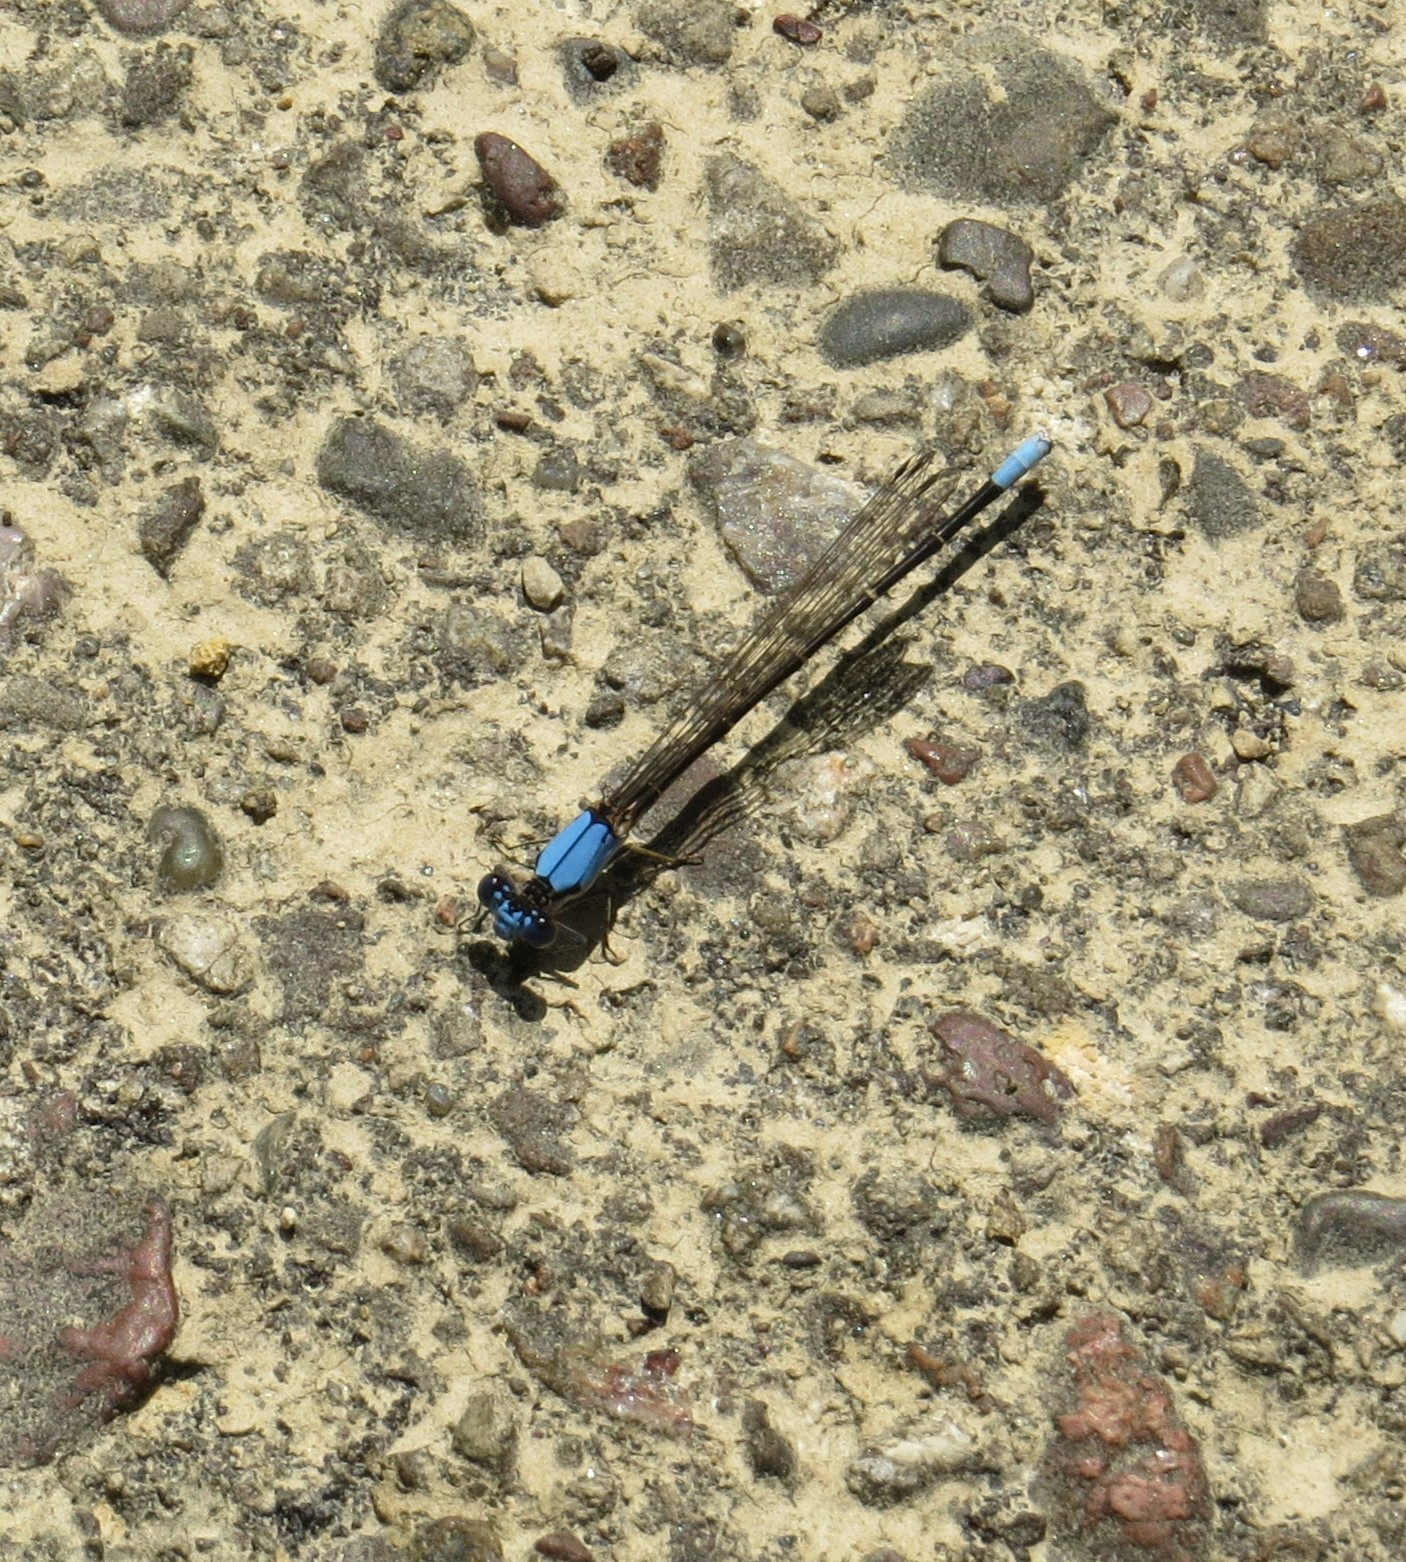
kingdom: Animalia
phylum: Arthropoda
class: Insecta
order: Odonata
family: Coenagrionidae
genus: Argia
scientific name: Argia apicalis
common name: Blue-fronted dancer
